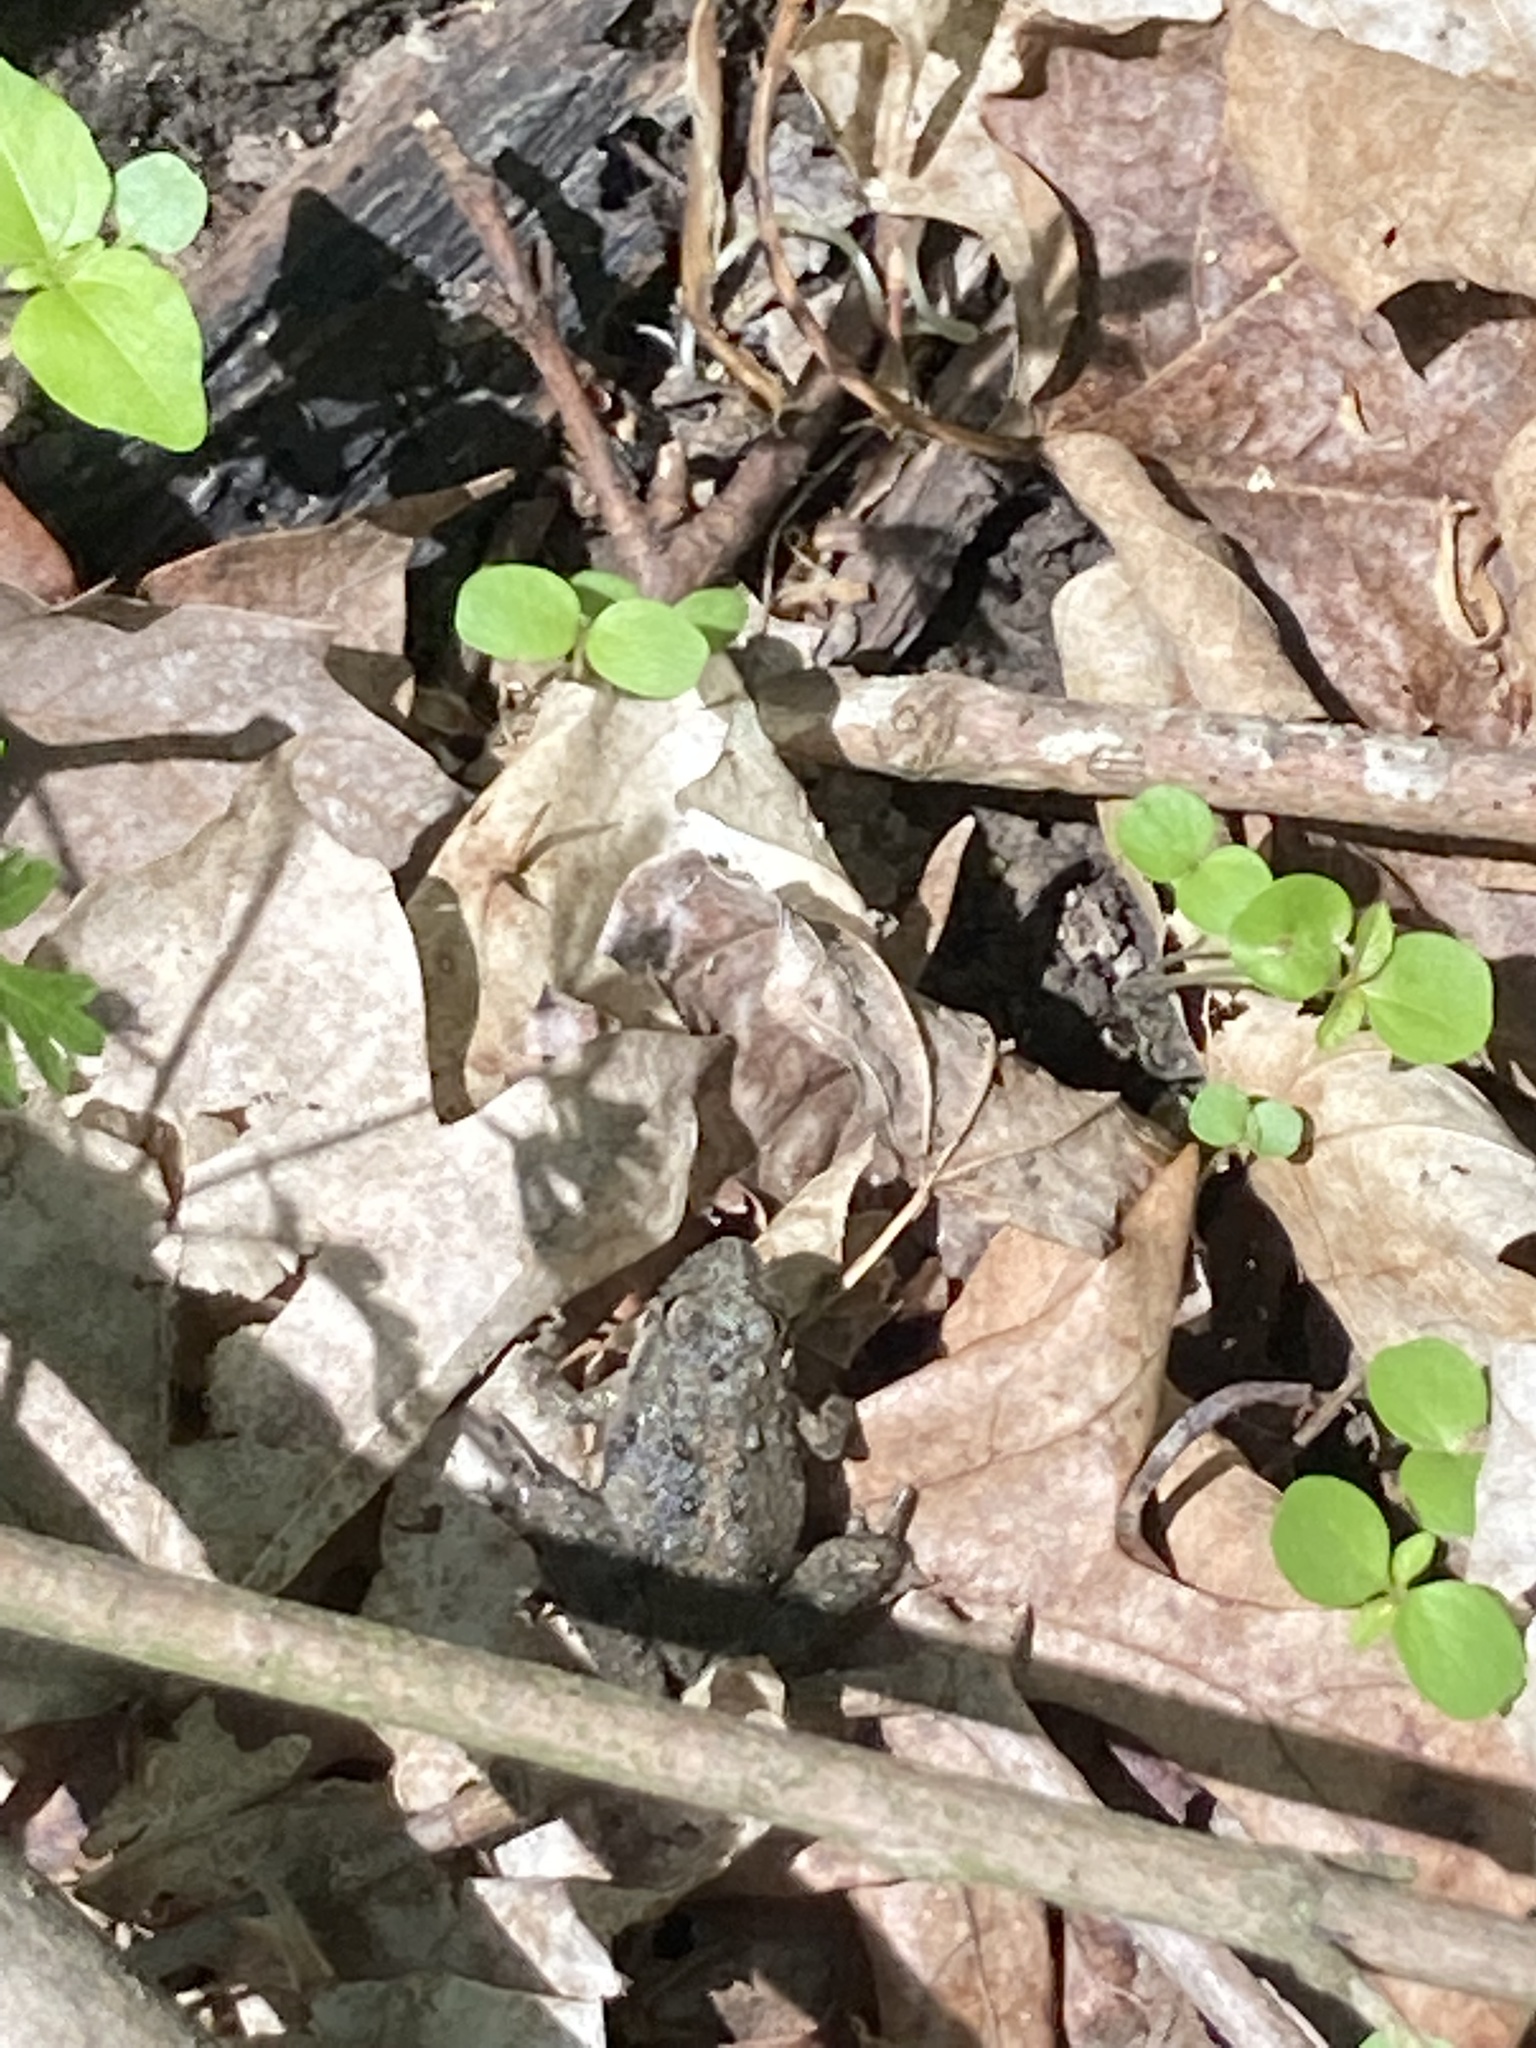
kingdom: Animalia
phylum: Chordata
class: Amphibia
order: Anura
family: Hylidae
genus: Acris
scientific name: Acris blanchardi
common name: Blanchard's cricket frog
